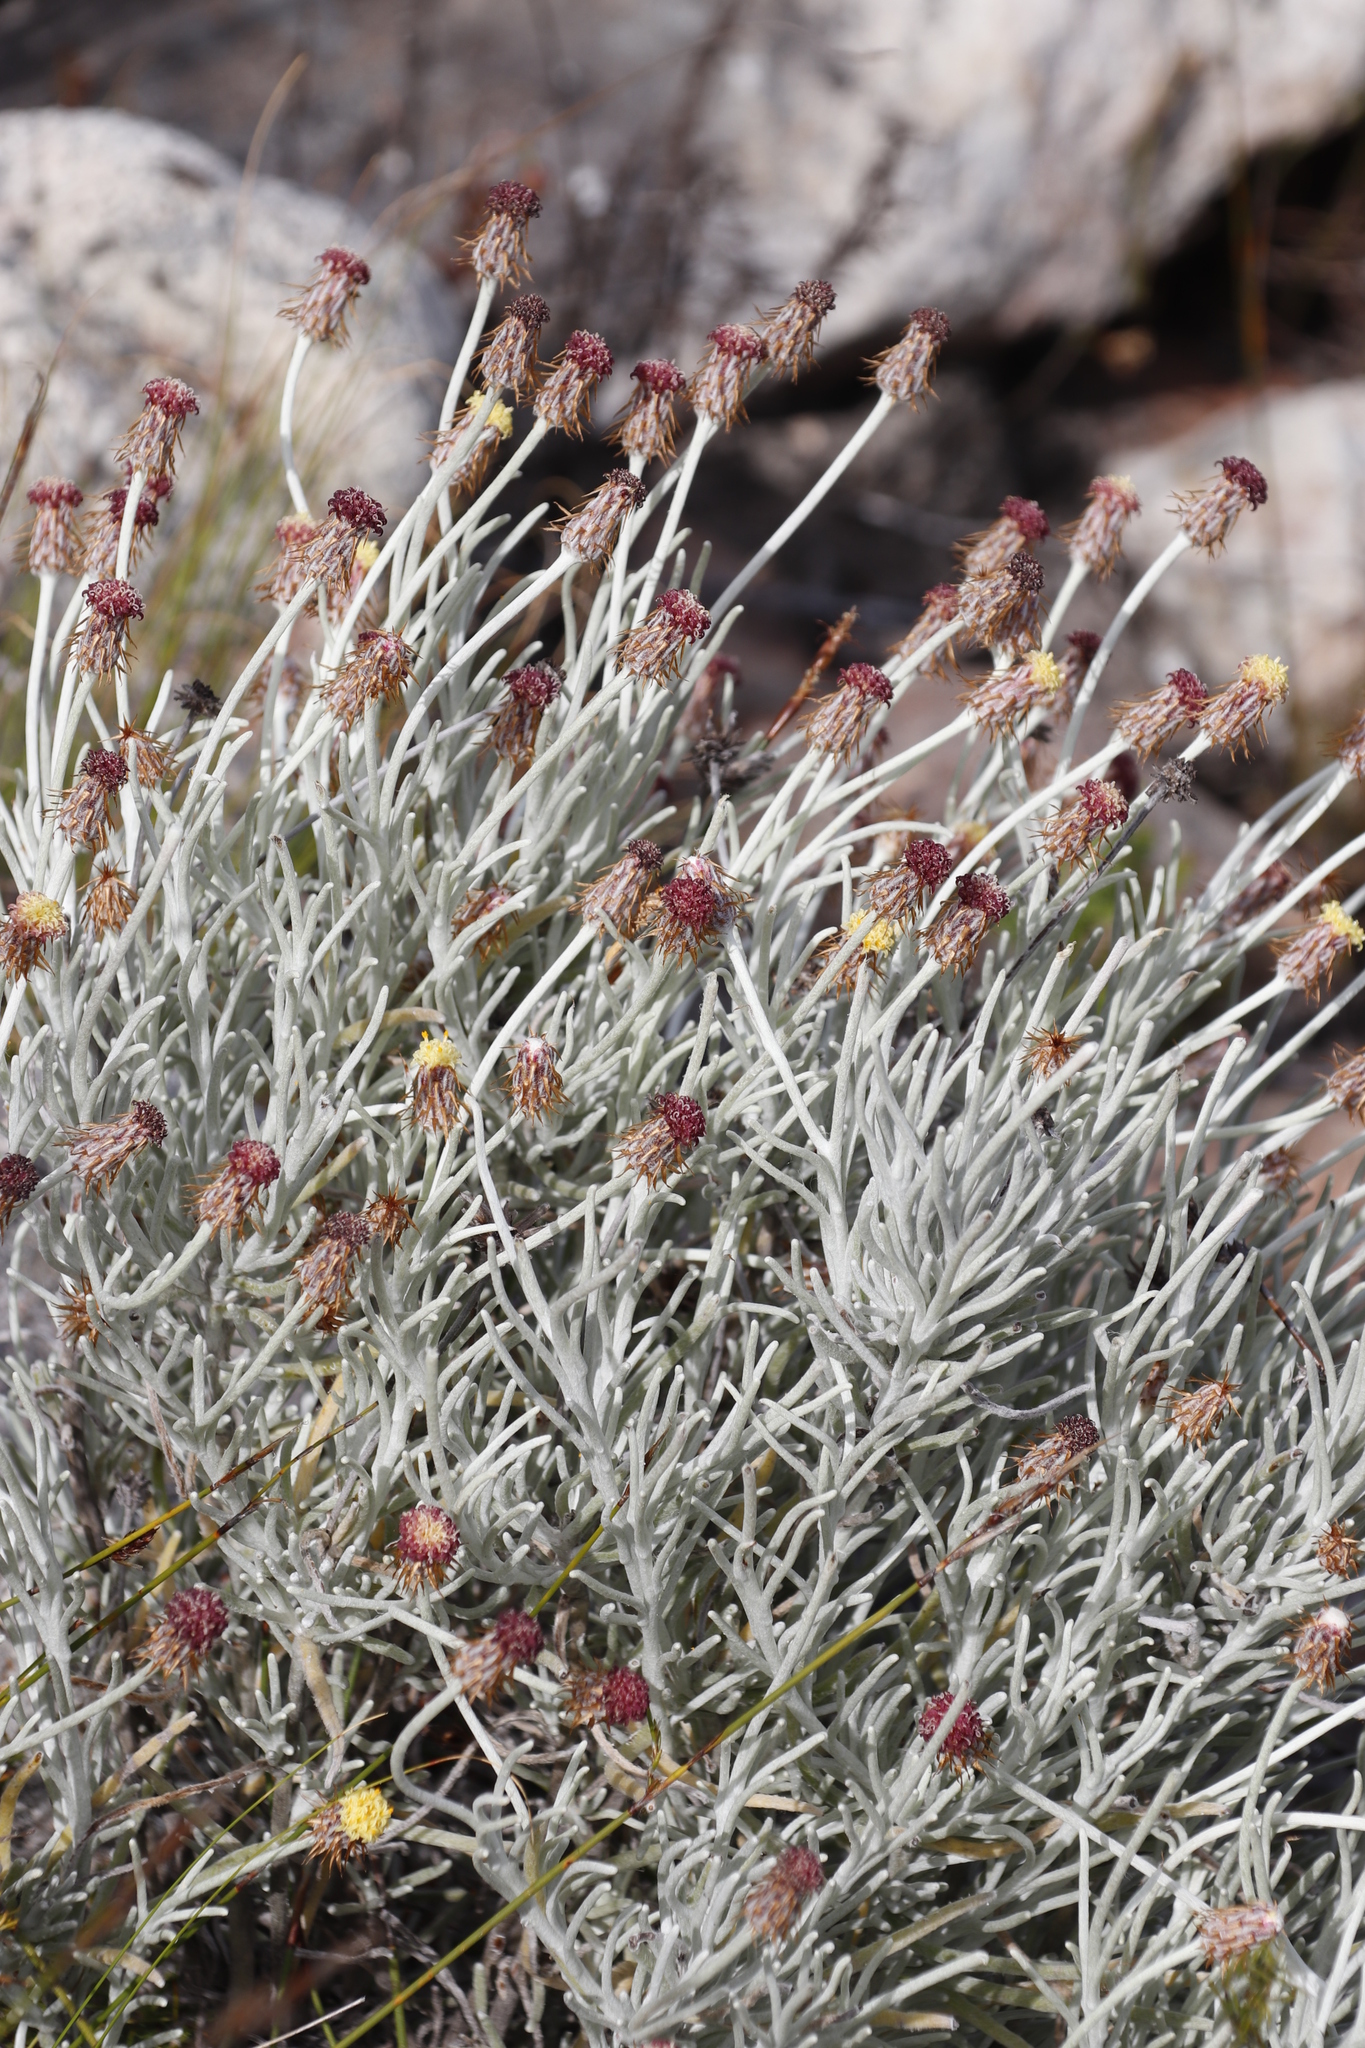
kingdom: Plantae
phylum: Tracheophyta
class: Magnoliopsida
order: Asterales
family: Asteraceae
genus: Syncarpha
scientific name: Syncarpha gnaphaloides
